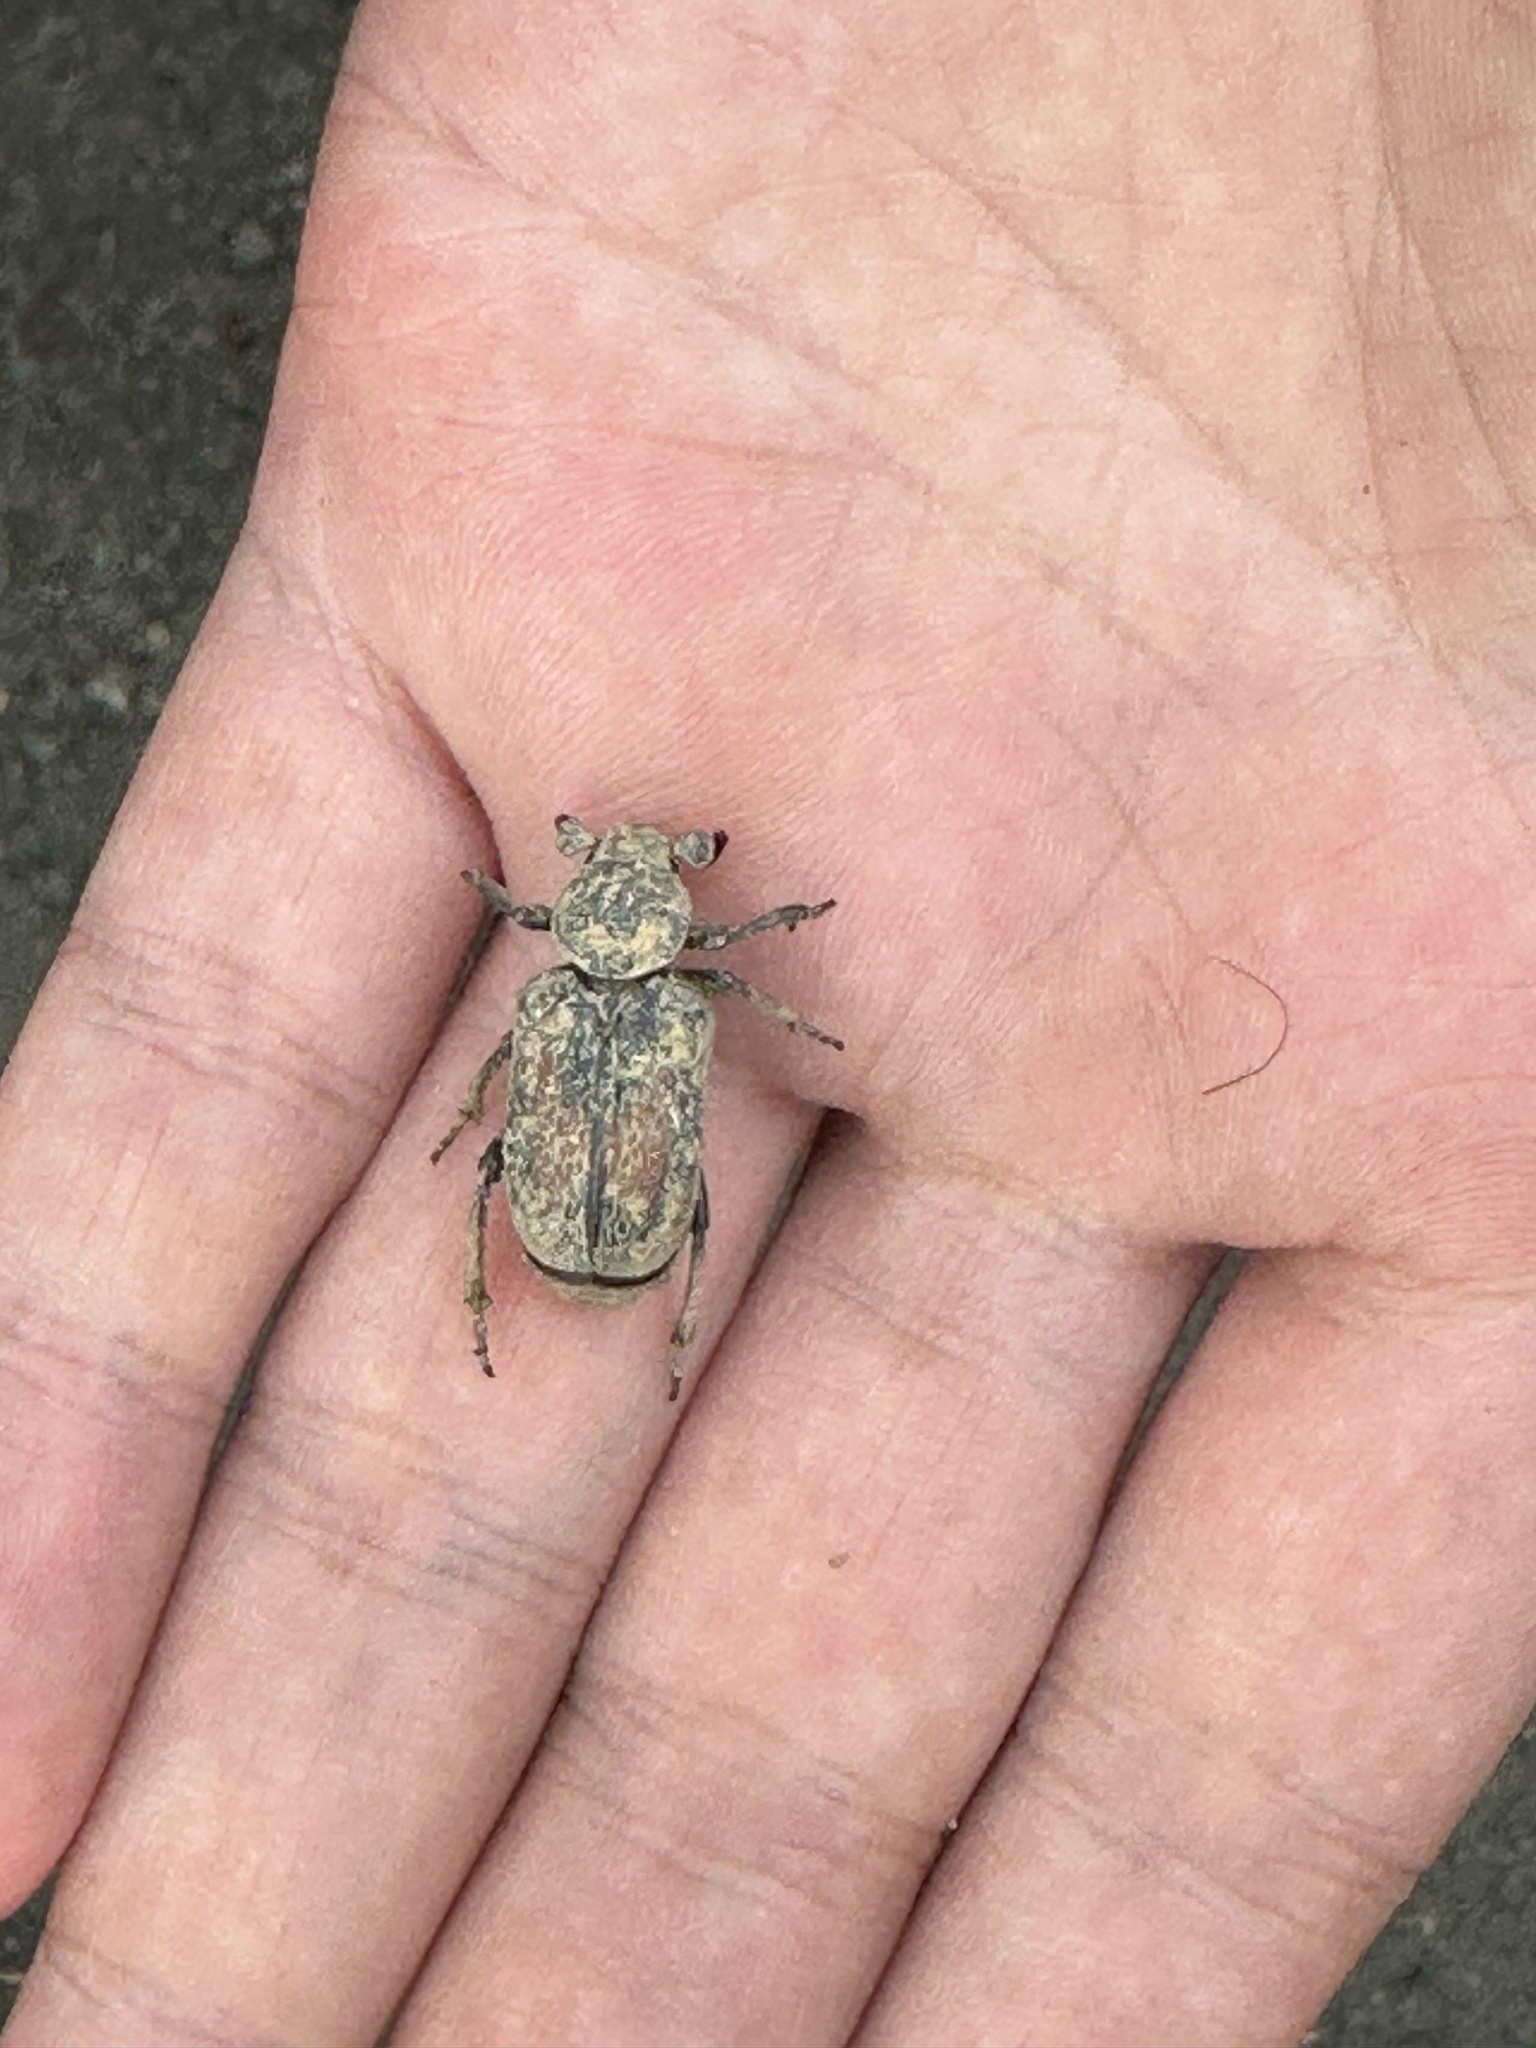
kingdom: Animalia
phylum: Arthropoda
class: Insecta
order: Coleoptera
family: Scarabaeidae
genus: Clinterocera
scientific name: Clinterocera nigra
